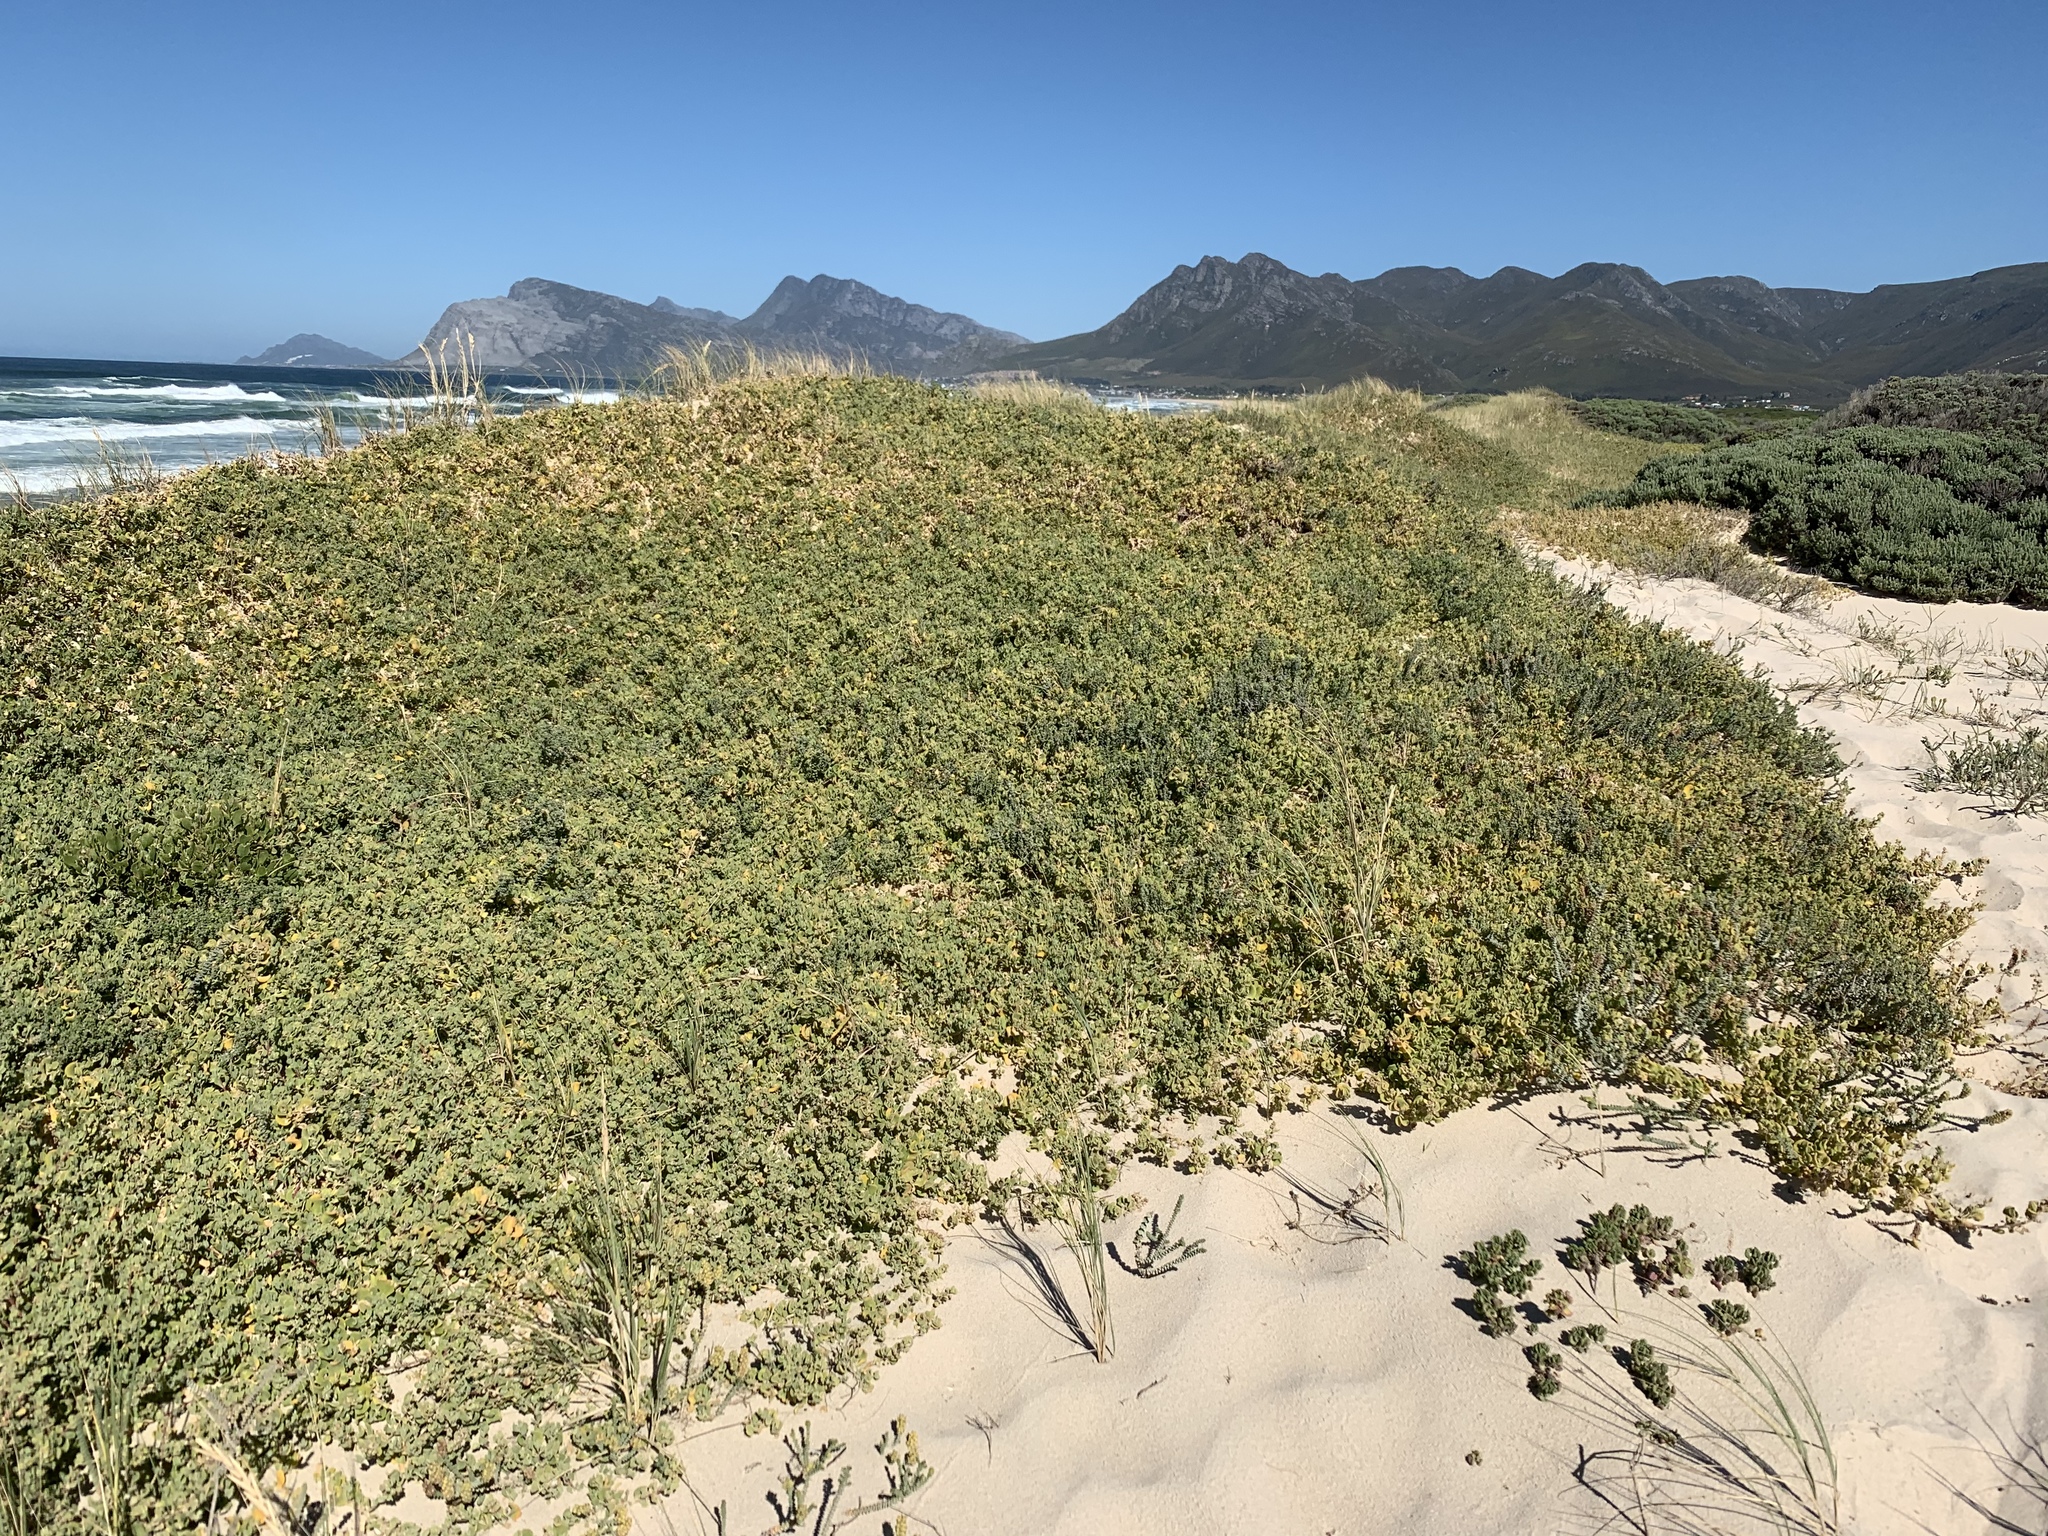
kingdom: Plantae
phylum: Tracheophyta
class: Magnoliopsida
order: Caryophyllales
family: Aizoaceae
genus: Tetragonia
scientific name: Tetragonia decumbens
